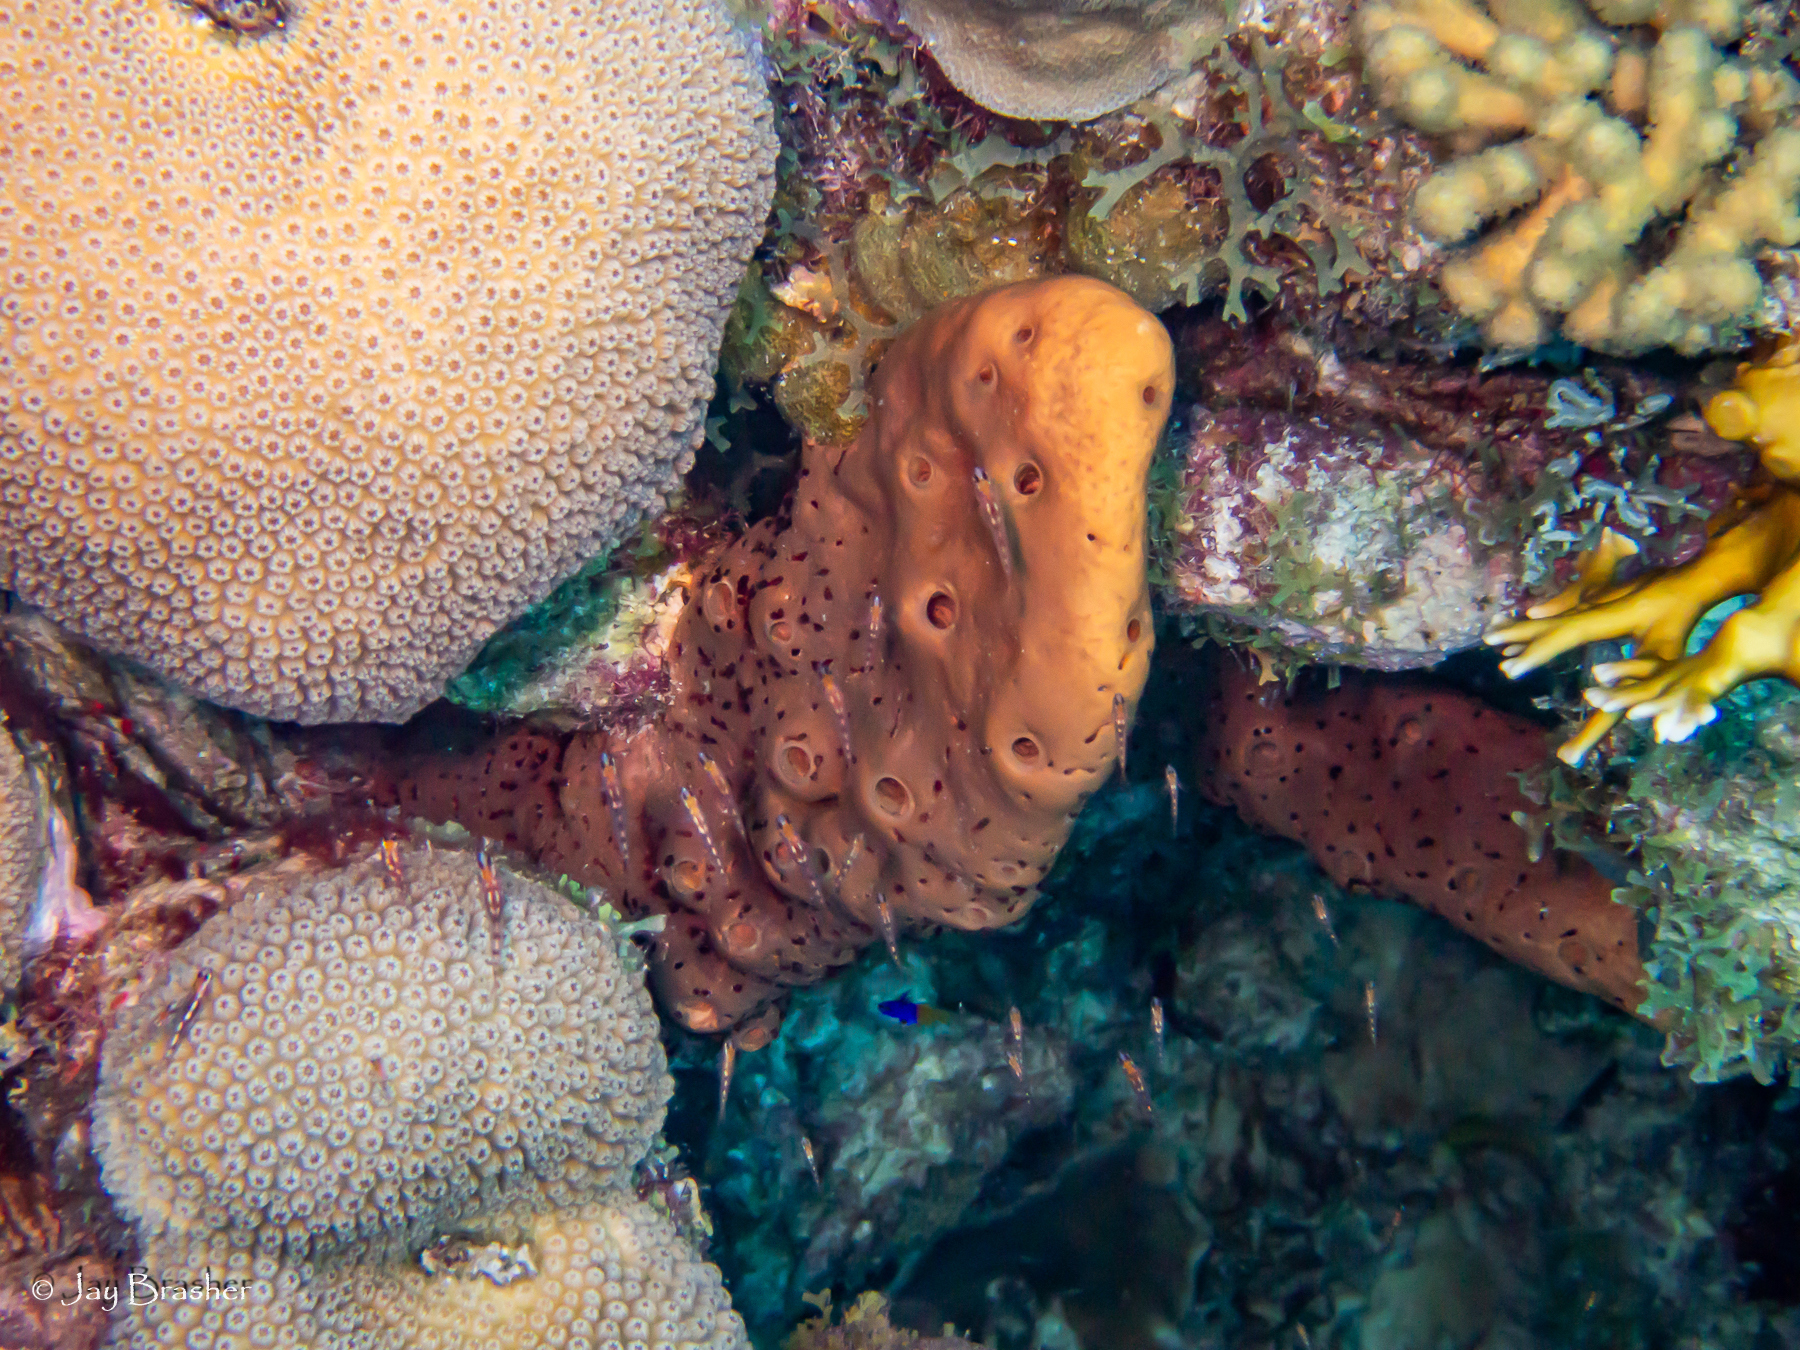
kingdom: Animalia
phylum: Porifera
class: Demospongiae
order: Agelasida
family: Agelasidae
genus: Agelas
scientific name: Agelas conifera
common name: Brown tube sponge
